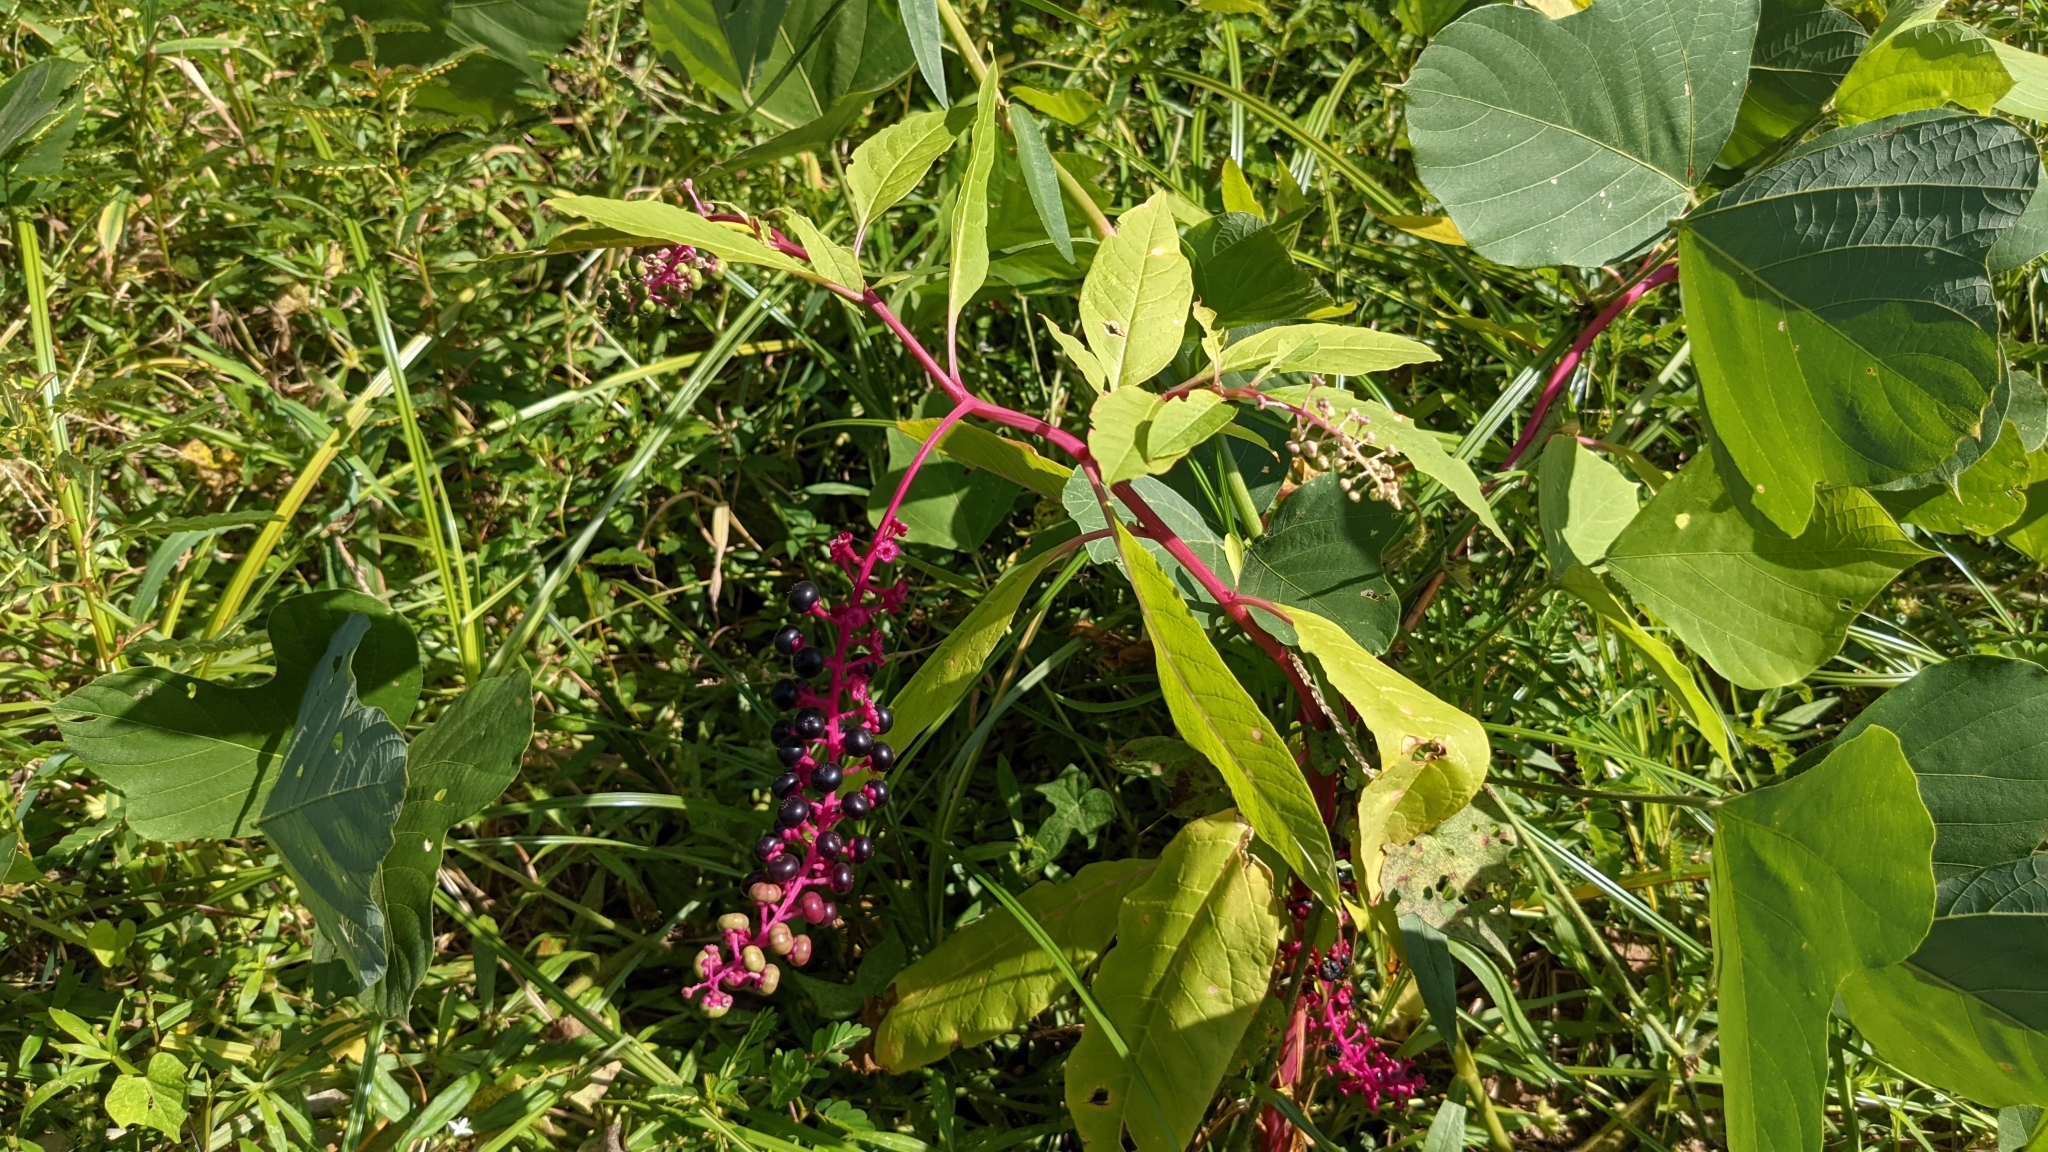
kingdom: Plantae
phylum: Tracheophyta
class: Magnoliopsida
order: Caryophyllales
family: Phytolaccaceae
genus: Phytolacca
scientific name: Phytolacca americana
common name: American pokeweed
